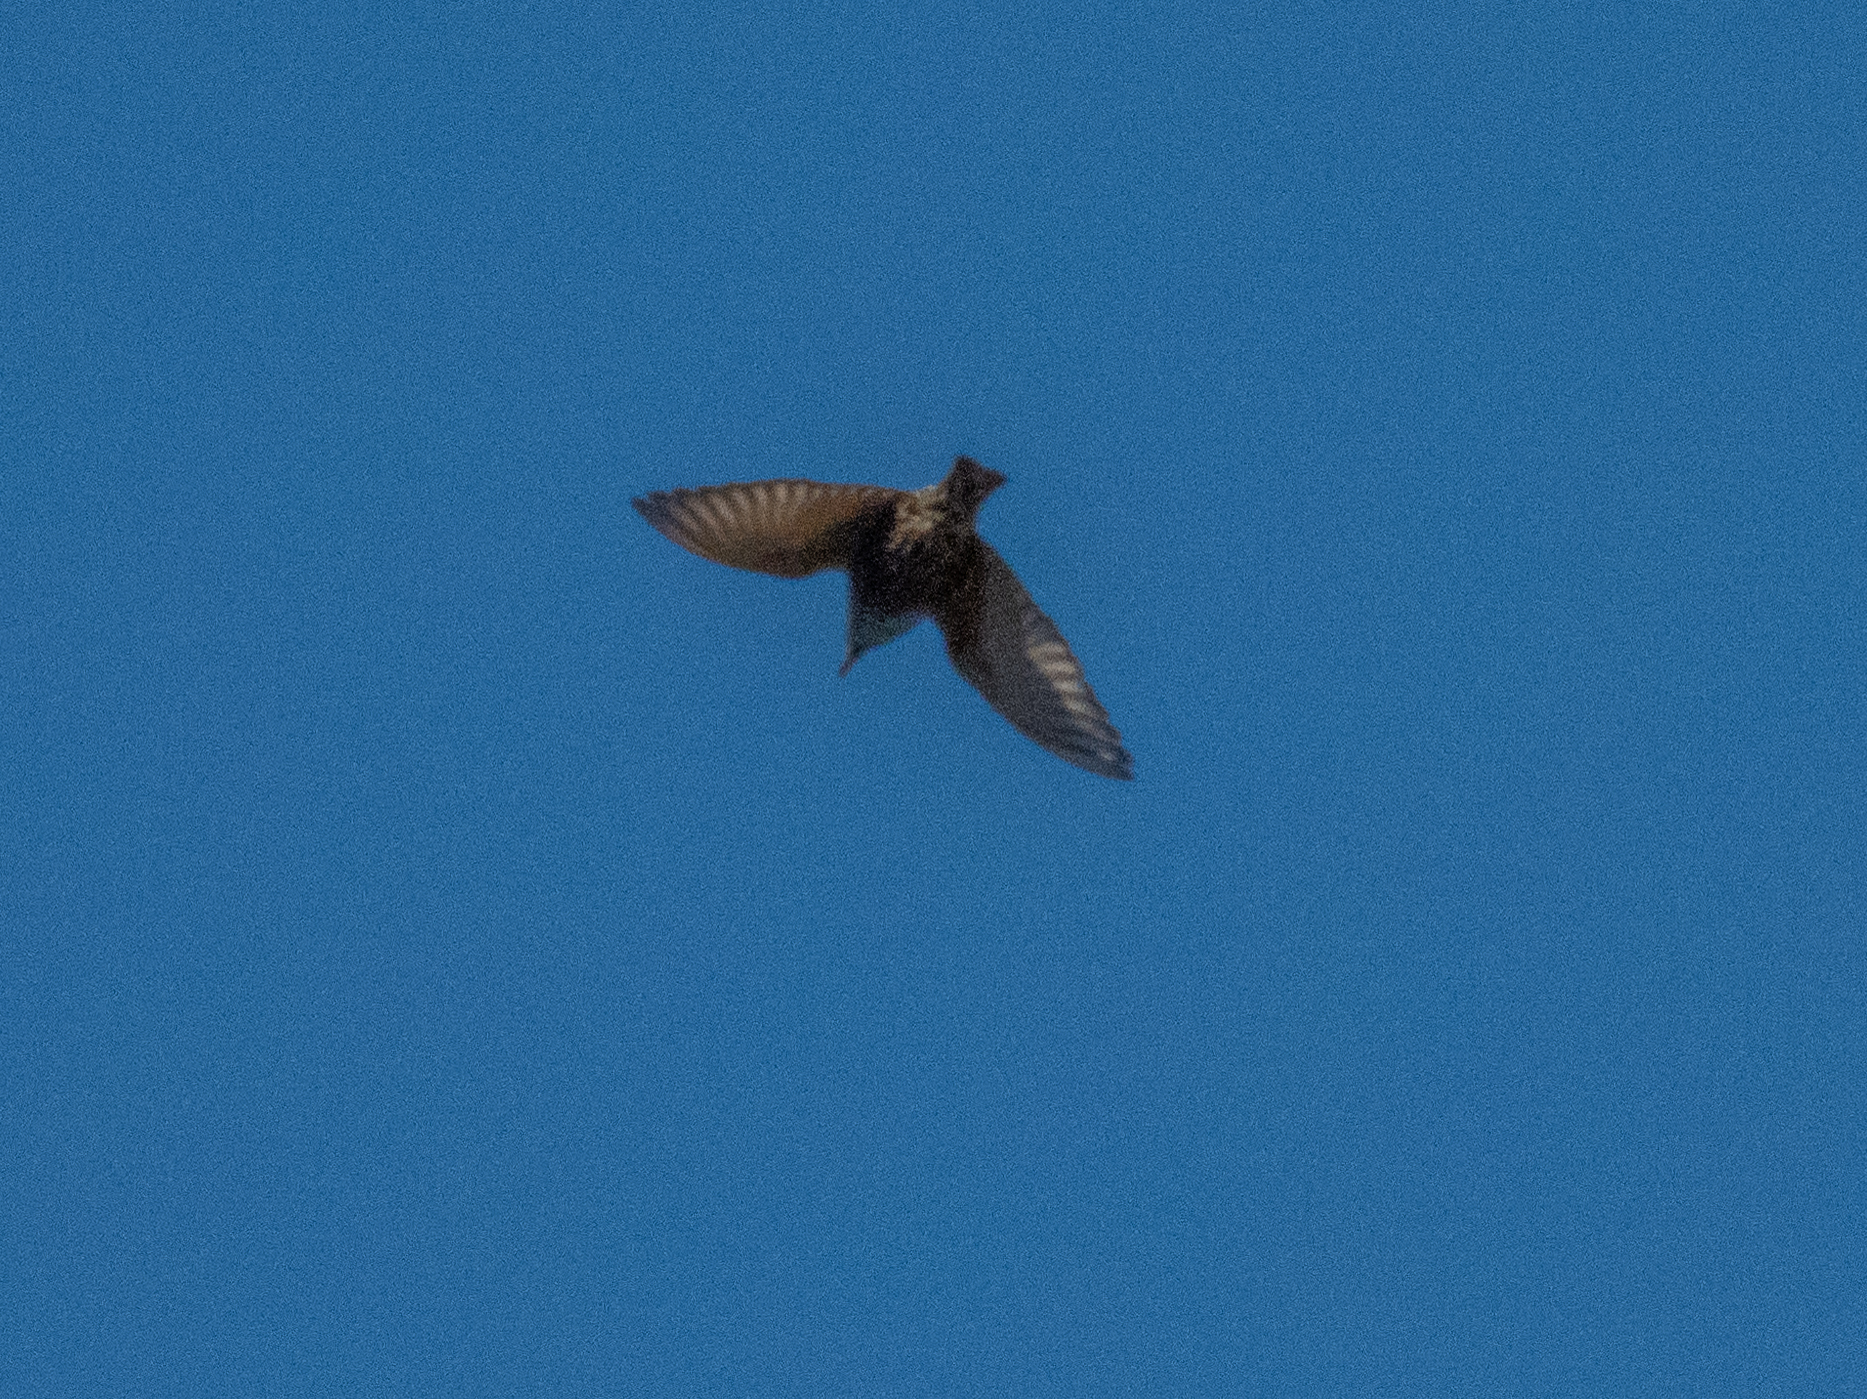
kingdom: Animalia
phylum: Chordata
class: Aves
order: Passeriformes
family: Sturnidae
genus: Sturnus
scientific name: Sturnus vulgaris
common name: Common starling
